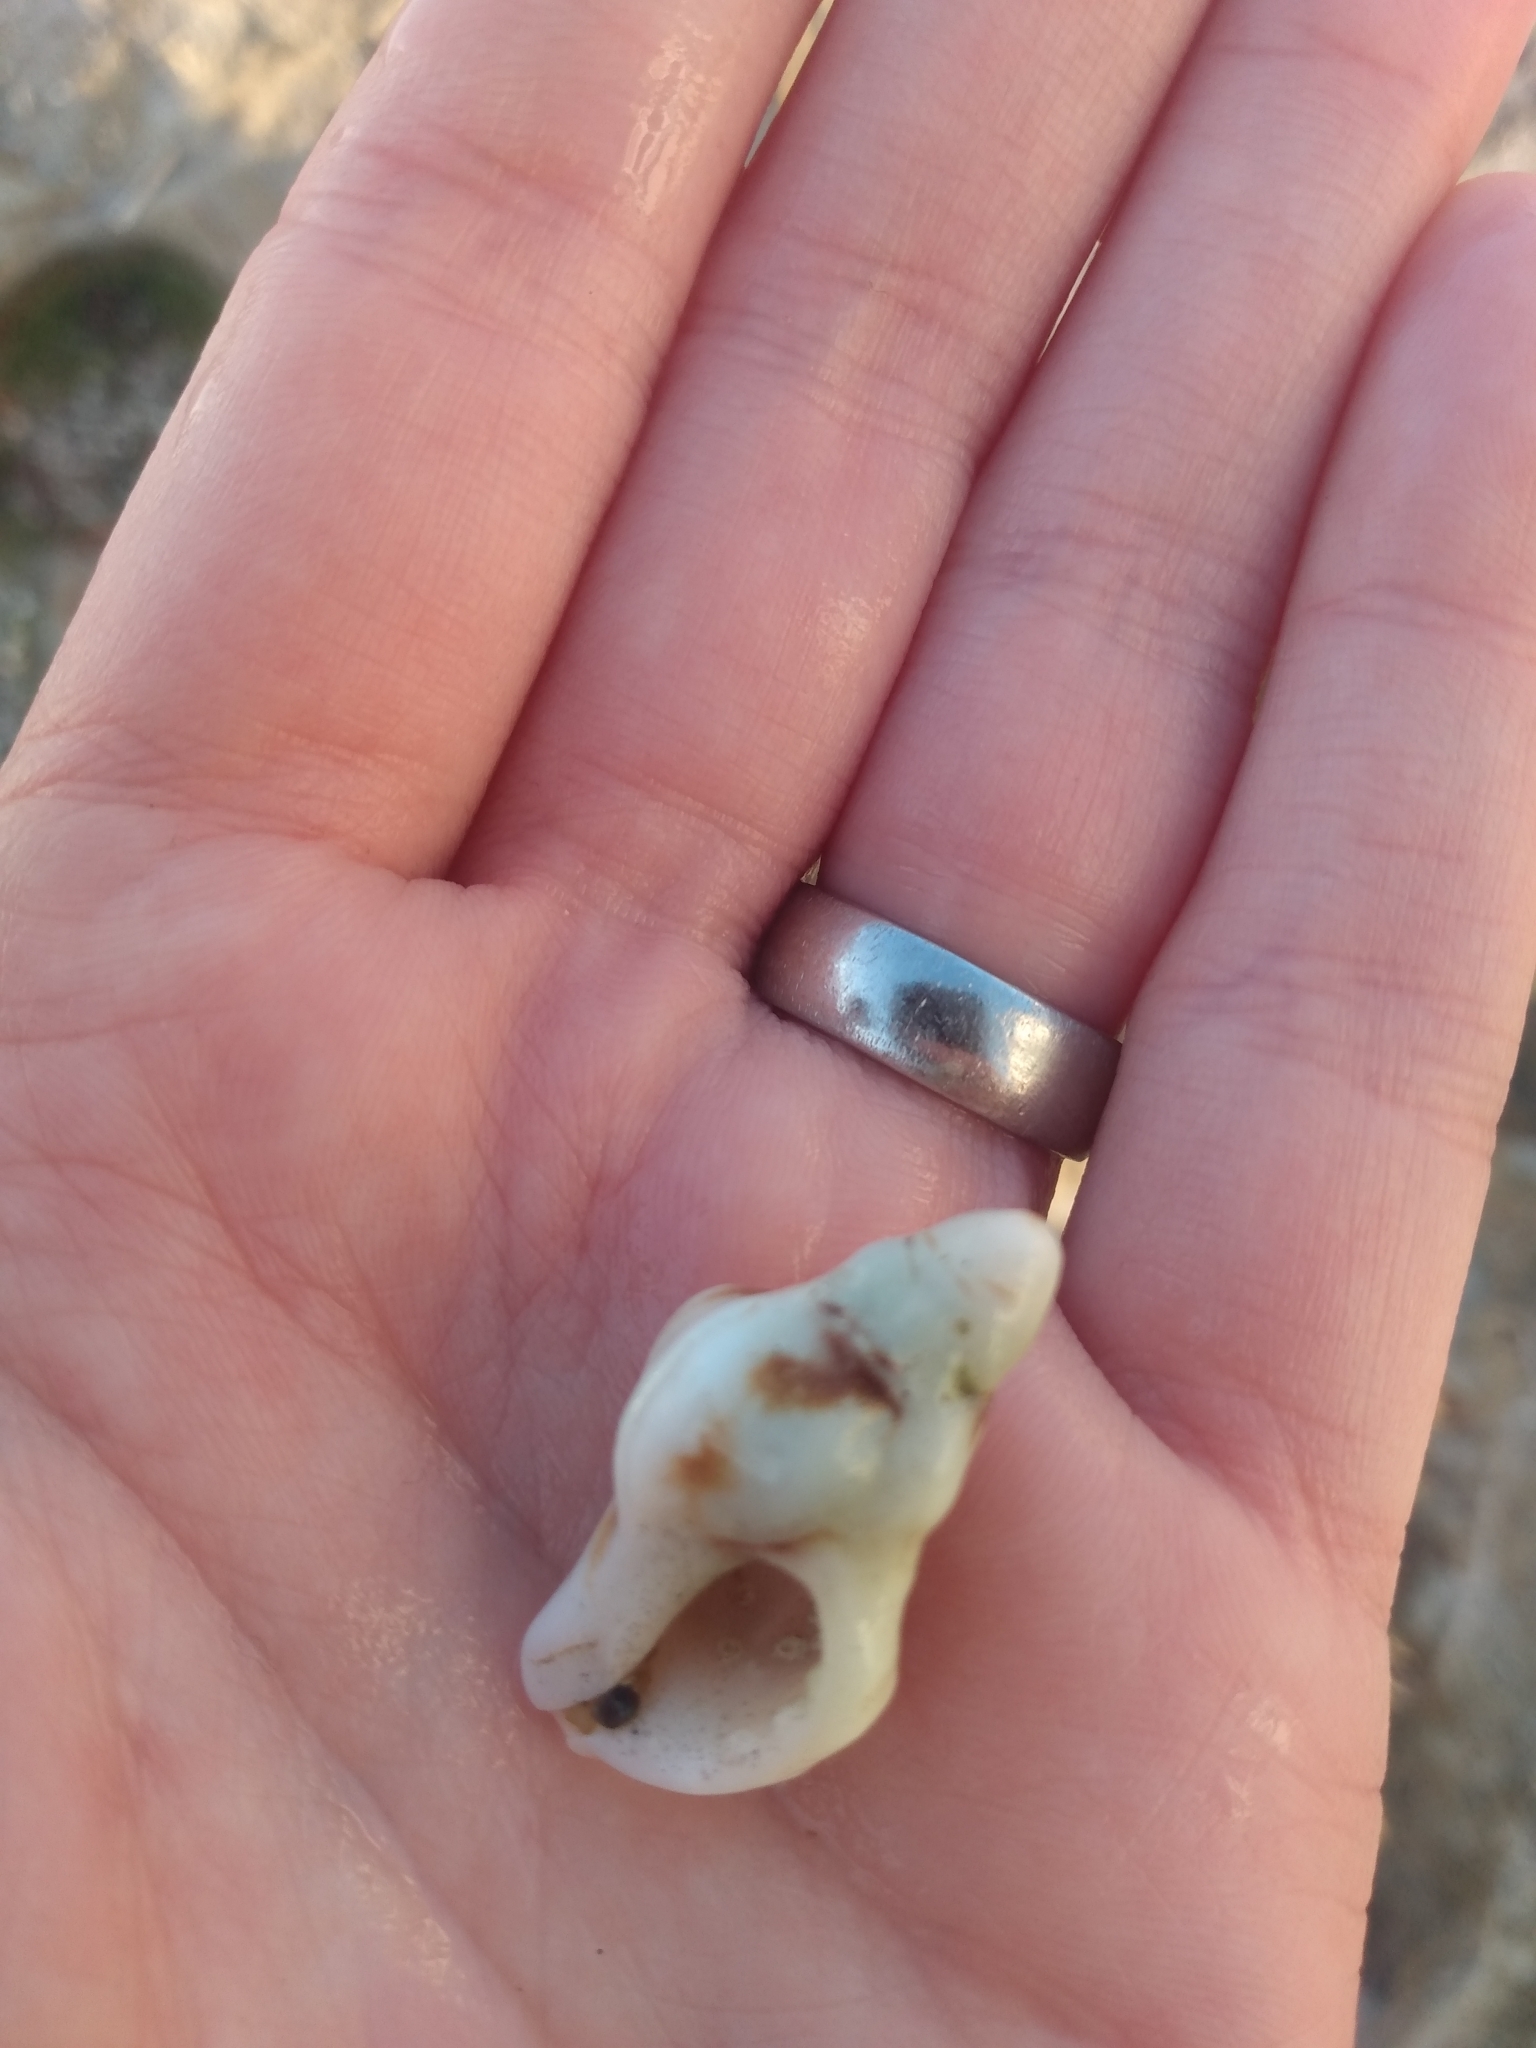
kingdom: Animalia
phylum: Mollusca
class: Gastropoda
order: Neogastropoda
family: Muricidae
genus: Ceratostoma
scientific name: Ceratostoma nuttalli
